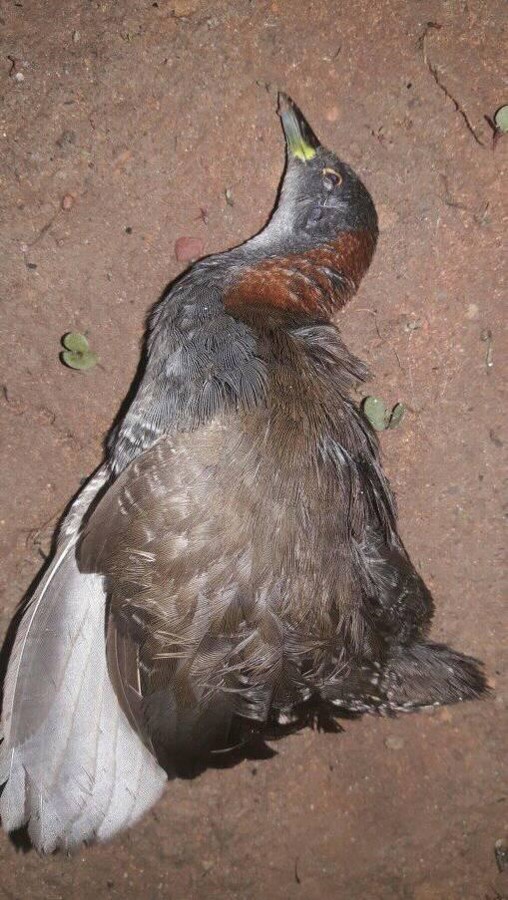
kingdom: Animalia
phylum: Chordata
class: Aves
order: Gruiformes
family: Rallidae
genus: Laterallus
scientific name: Laterallus exilis
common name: Gray-breasted crake
